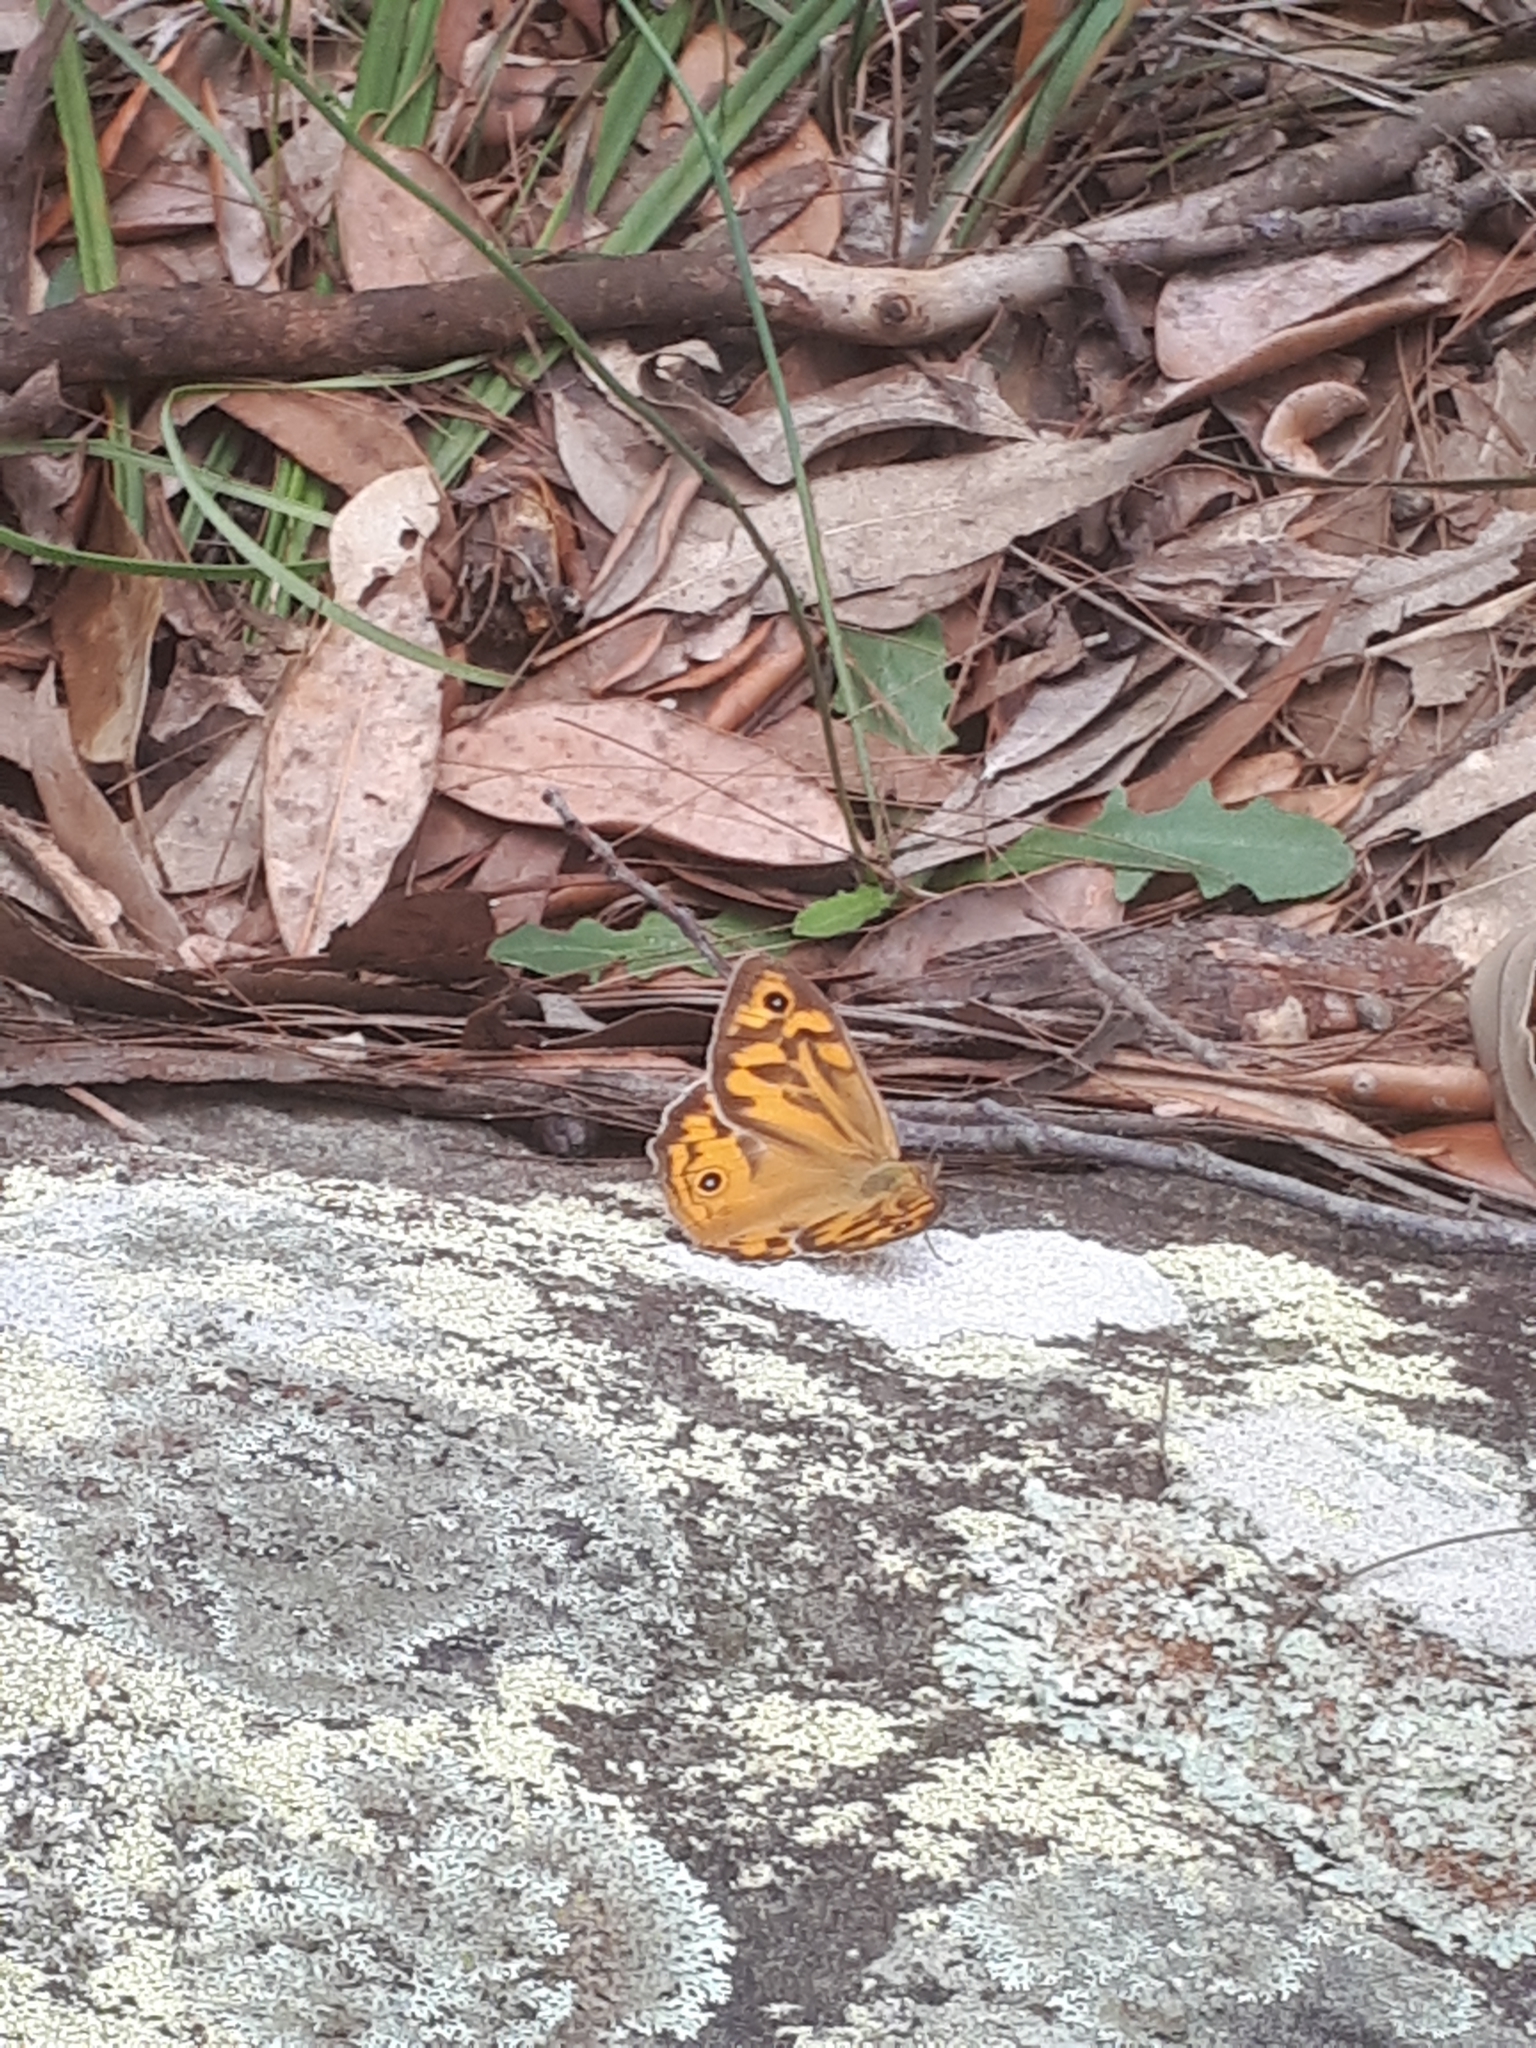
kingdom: Animalia
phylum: Arthropoda
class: Insecta
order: Lepidoptera
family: Nymphalidae
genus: Heteronympha
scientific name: Heteronympha merope
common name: Common brown
